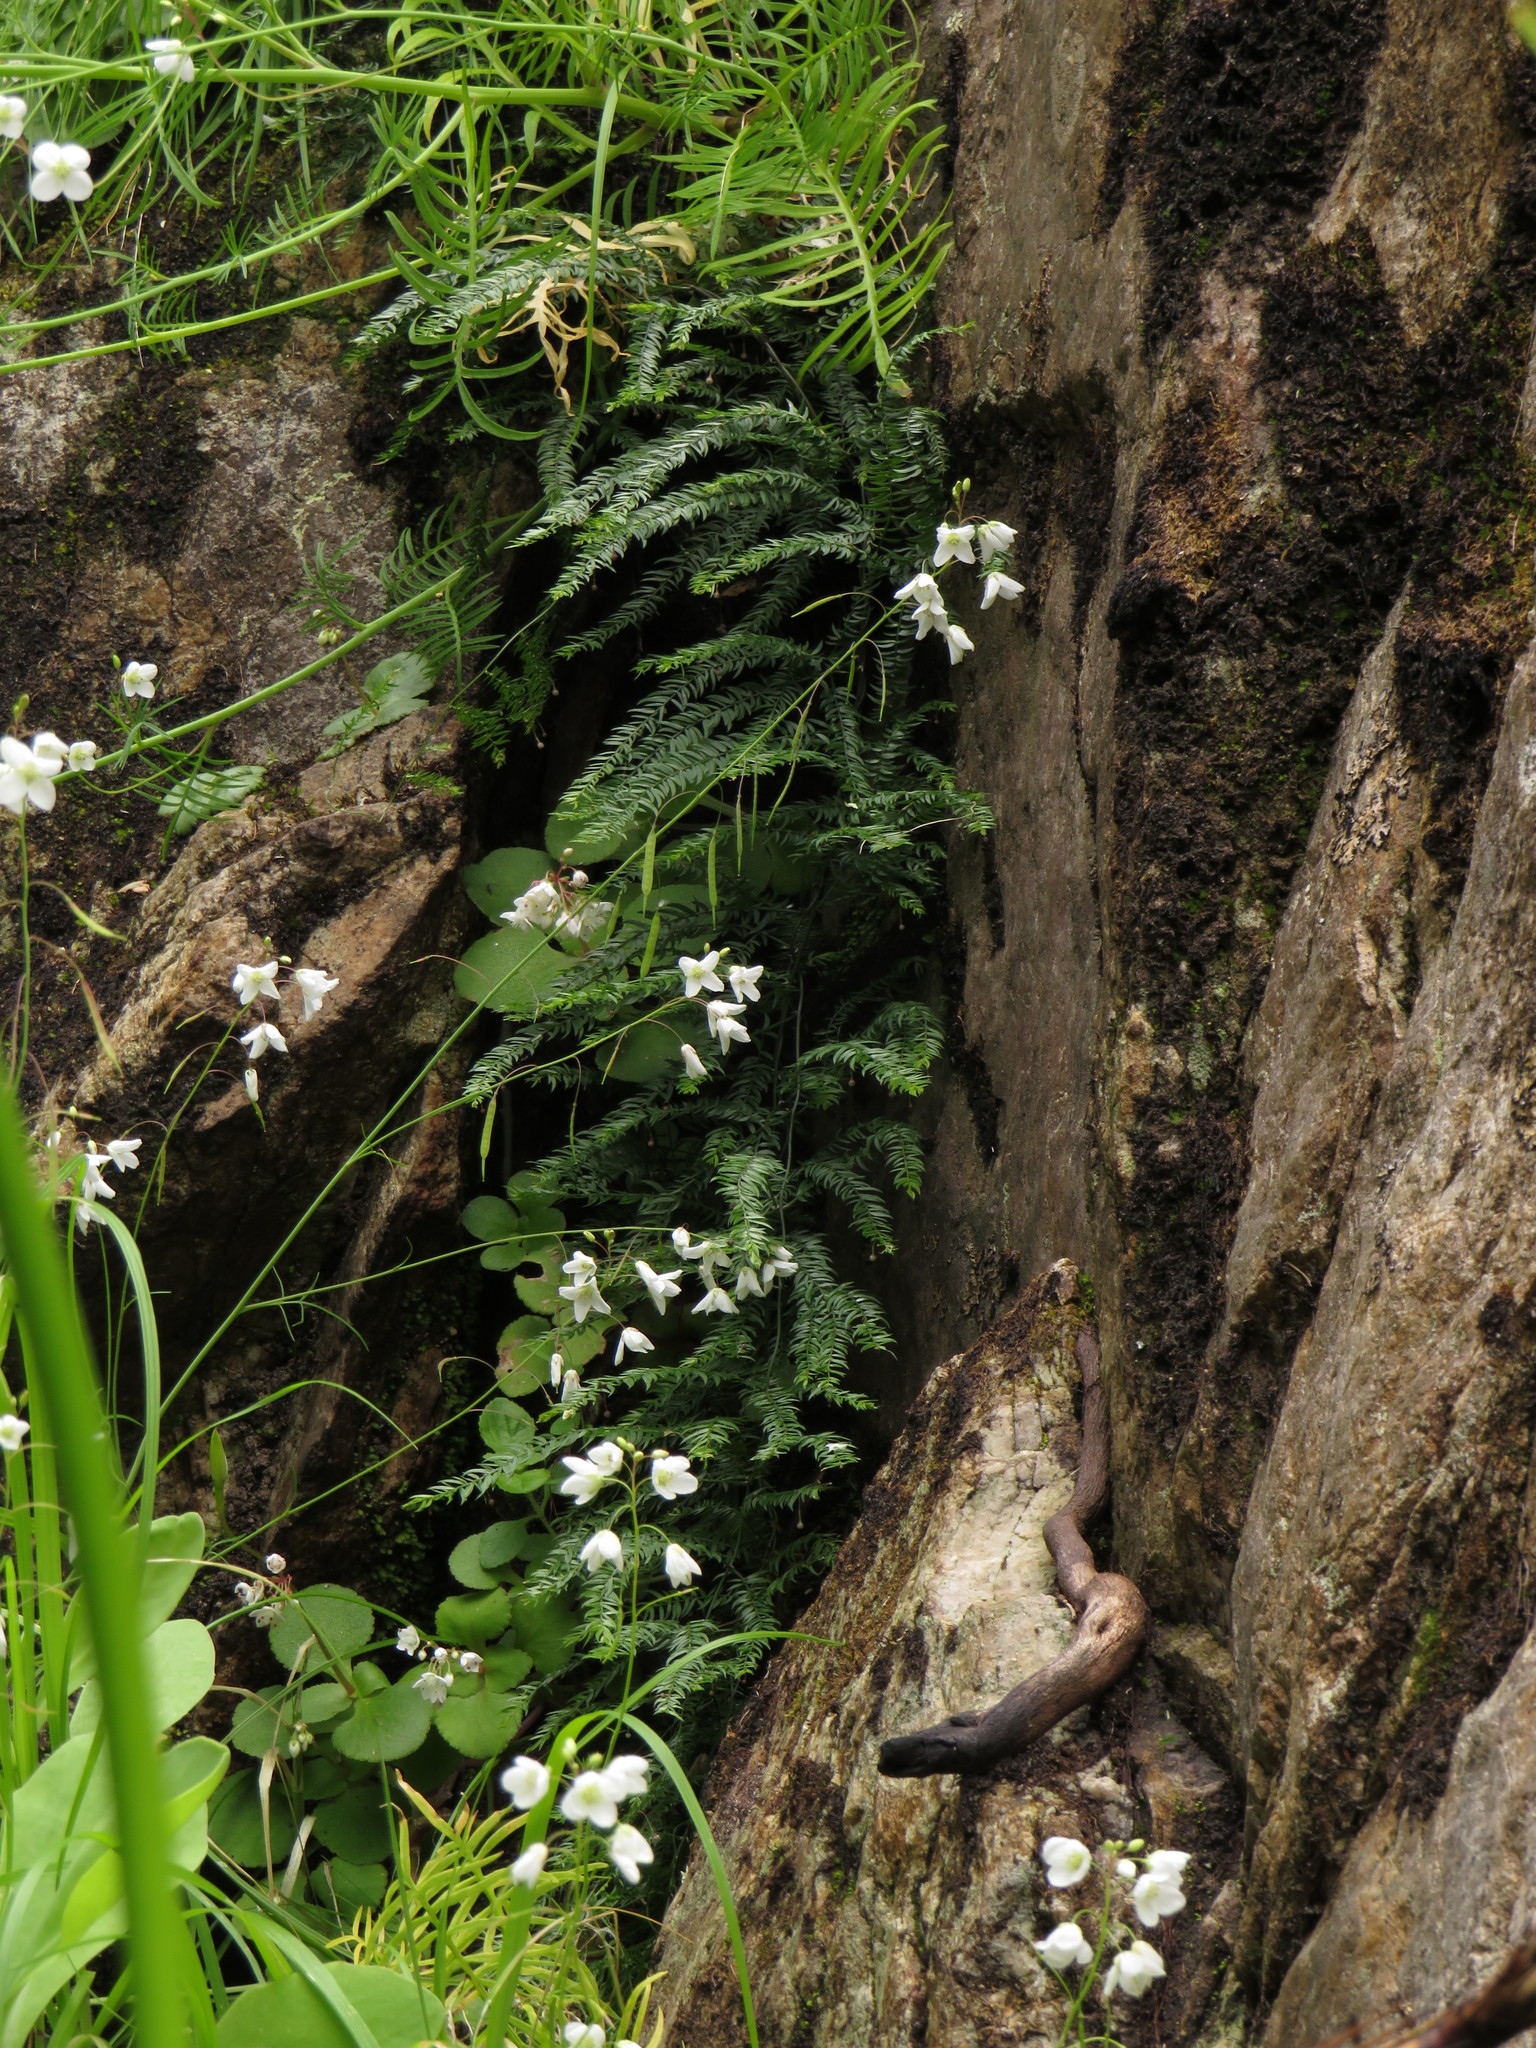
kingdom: Plantae
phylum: Tracheophyta
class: Liliopsida
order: Asparagales
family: Asparagaceae
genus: Asparagus
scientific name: Asparagus scandens
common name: Asparagus-fern
